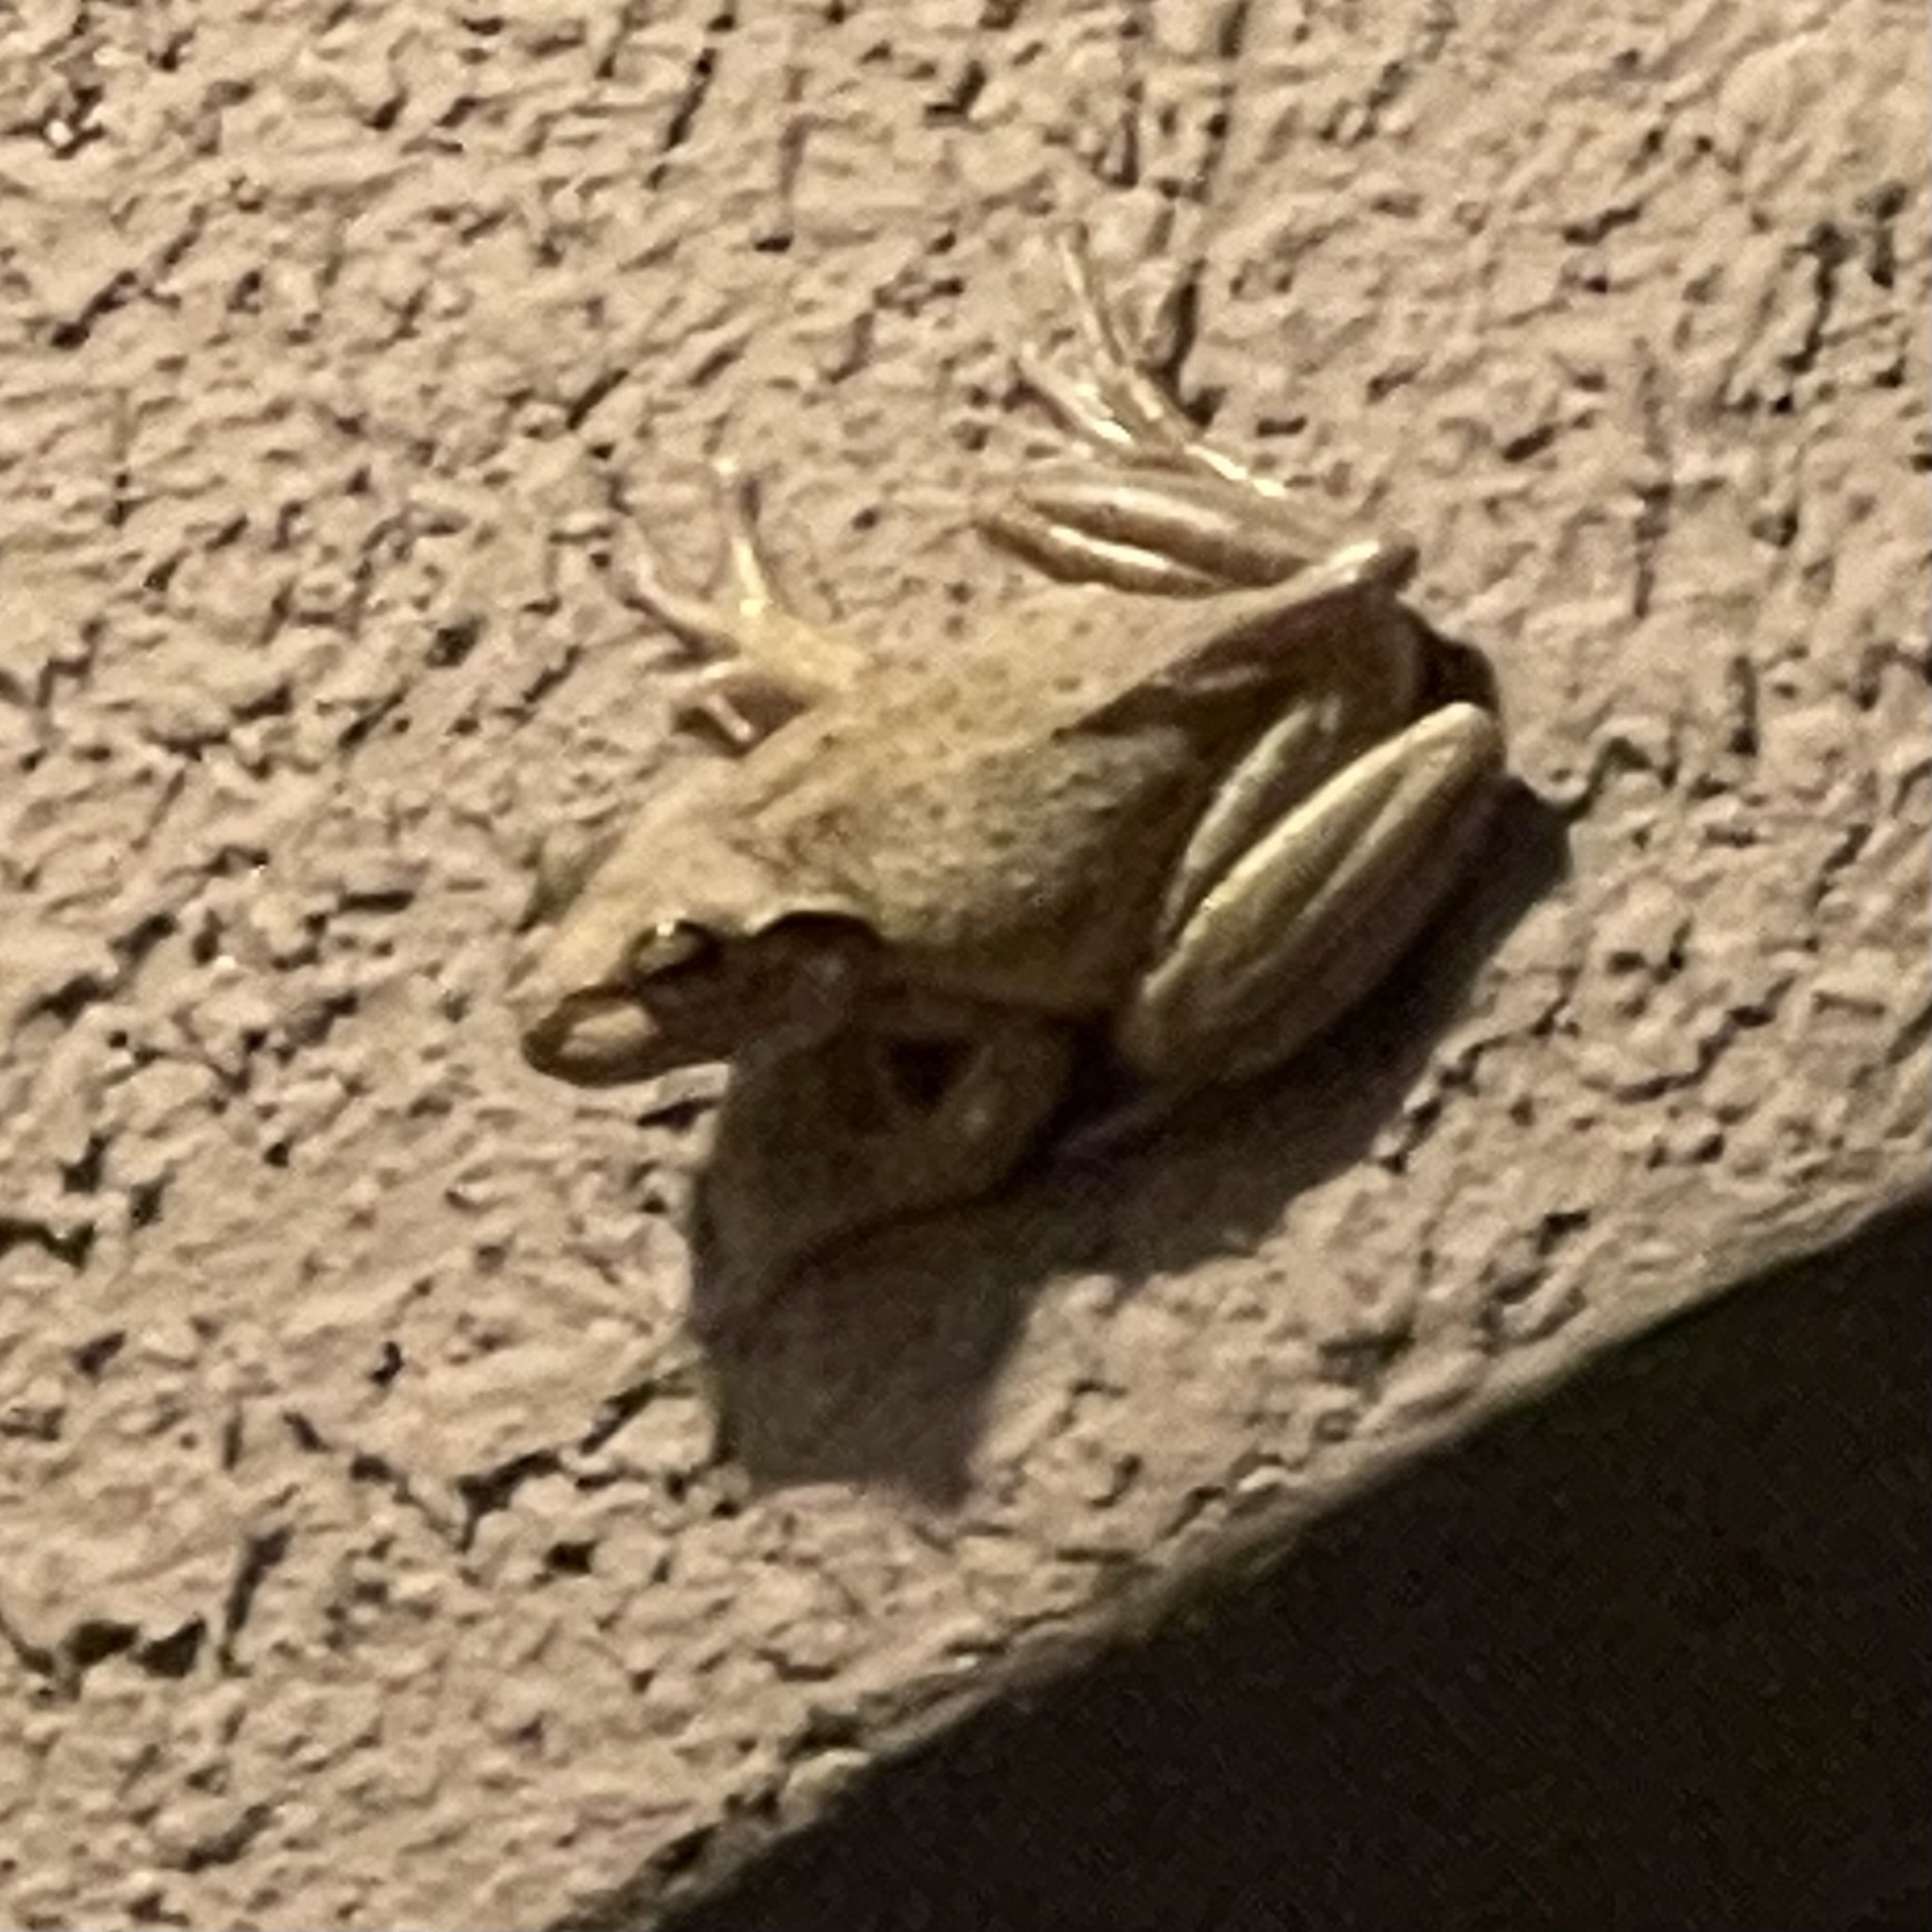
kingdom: Animalia
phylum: Chordata
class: Amphibia
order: Anura
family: Hylidae
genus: Osteopilus
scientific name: Osteopilus septentrionalis
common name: Cuban treefrog
